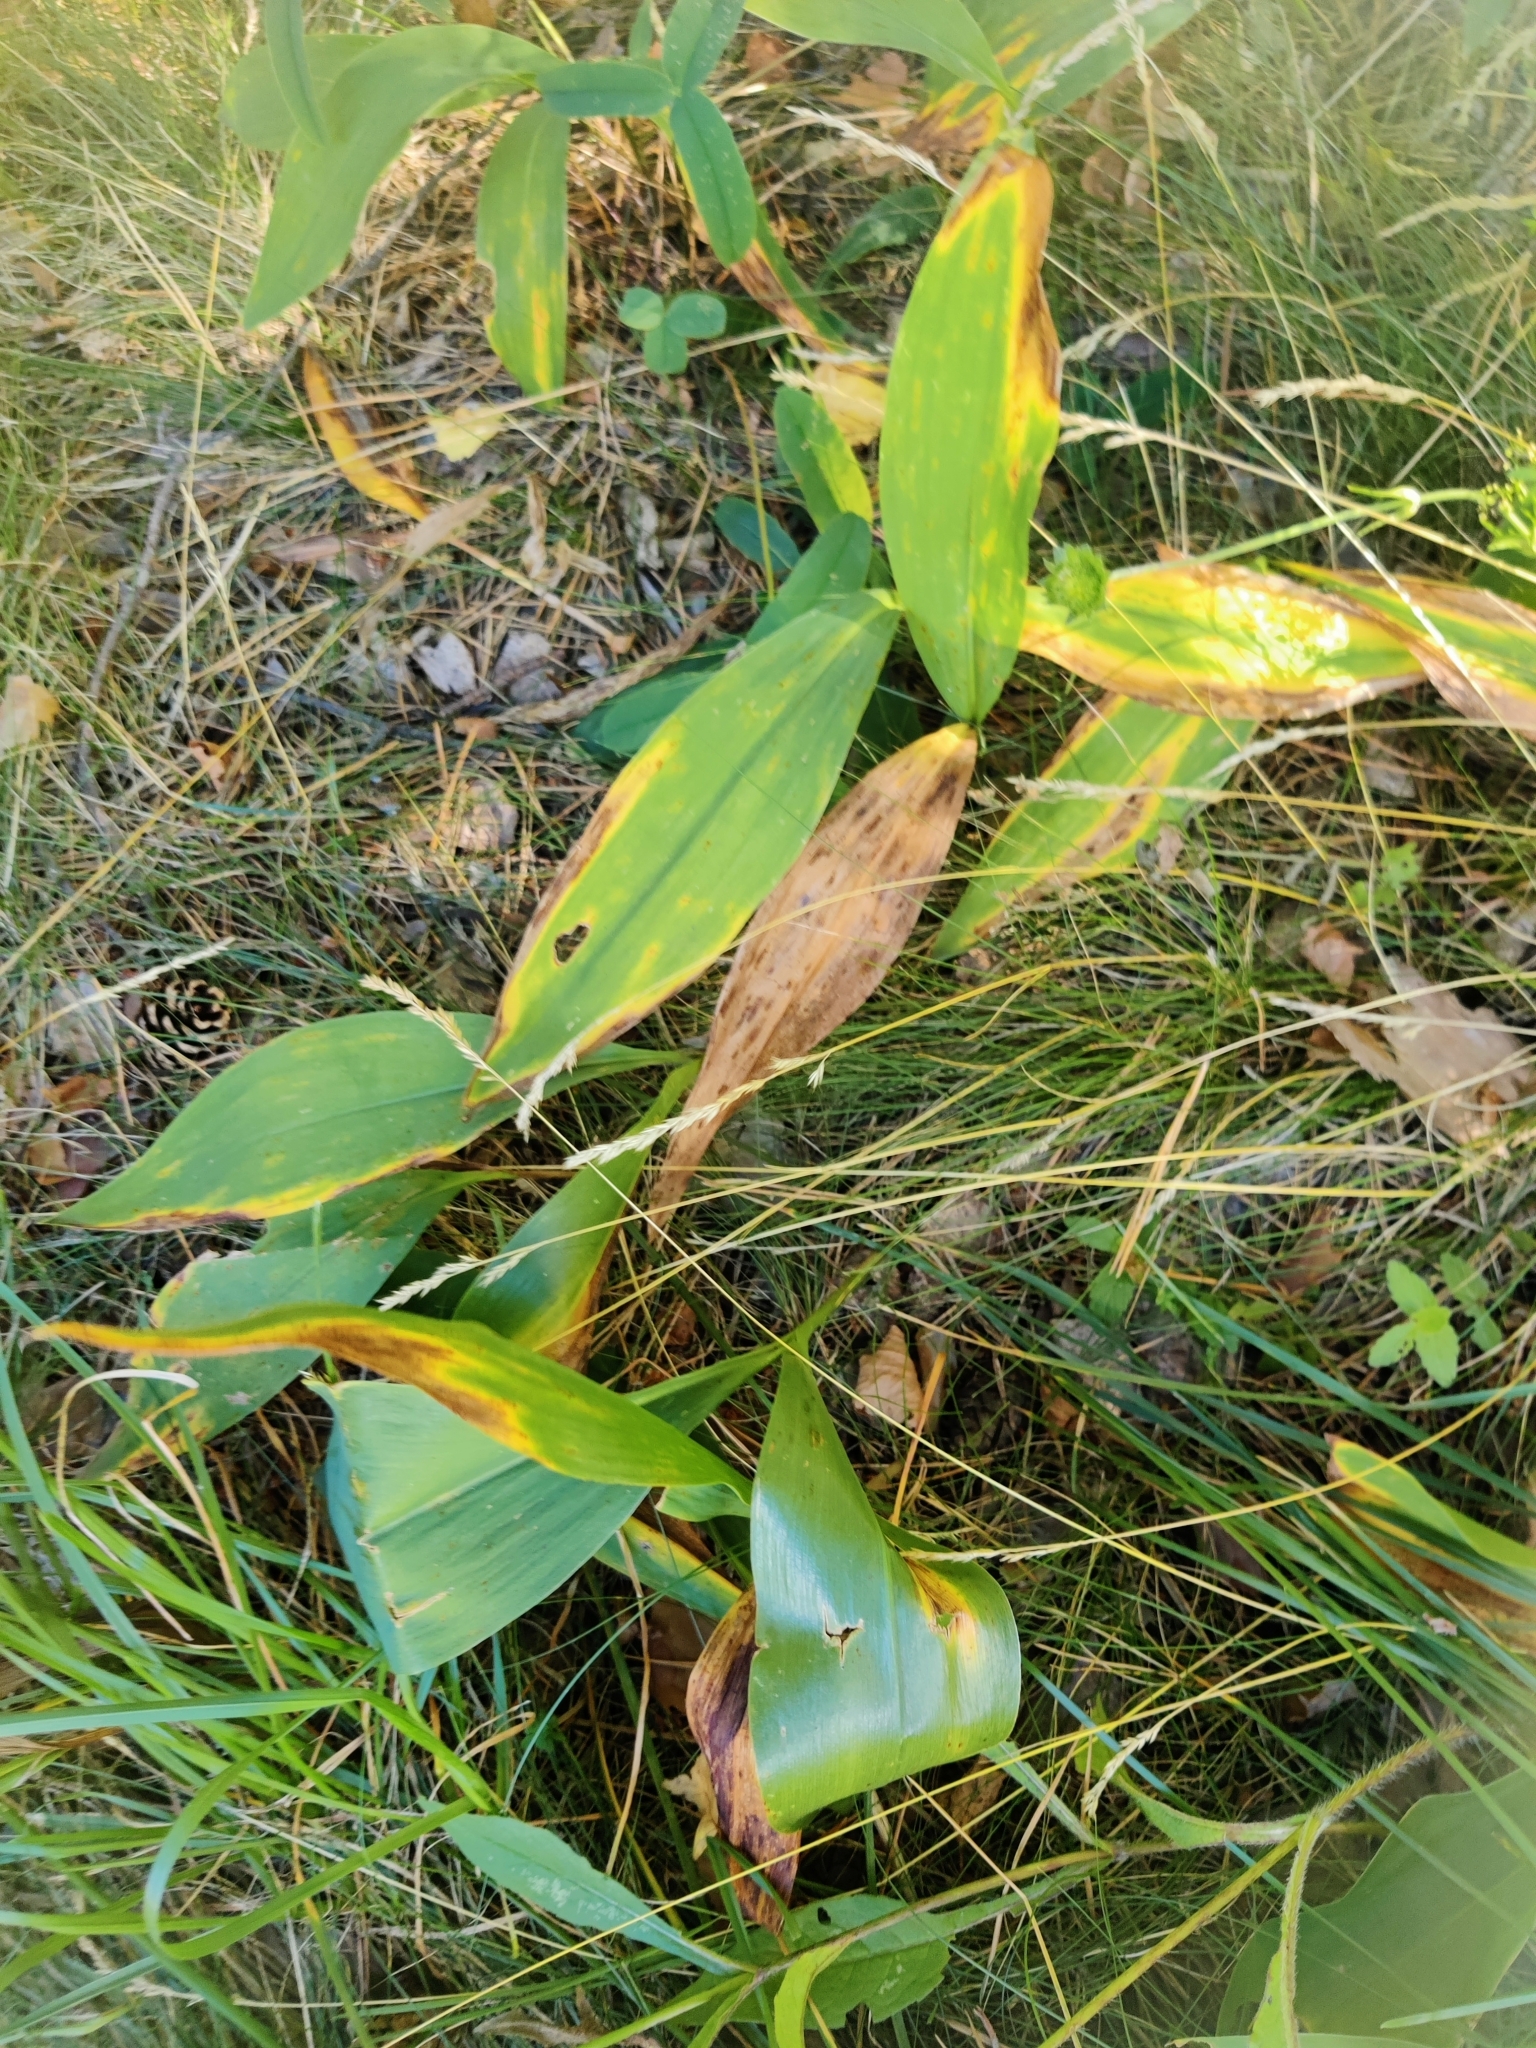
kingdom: Plantae
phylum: Tracheophyta
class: Liliopsida
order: Asparagales
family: Asparagaceae
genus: Convallaria
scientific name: Convallaria majalis
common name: Lily-of-the-valley
